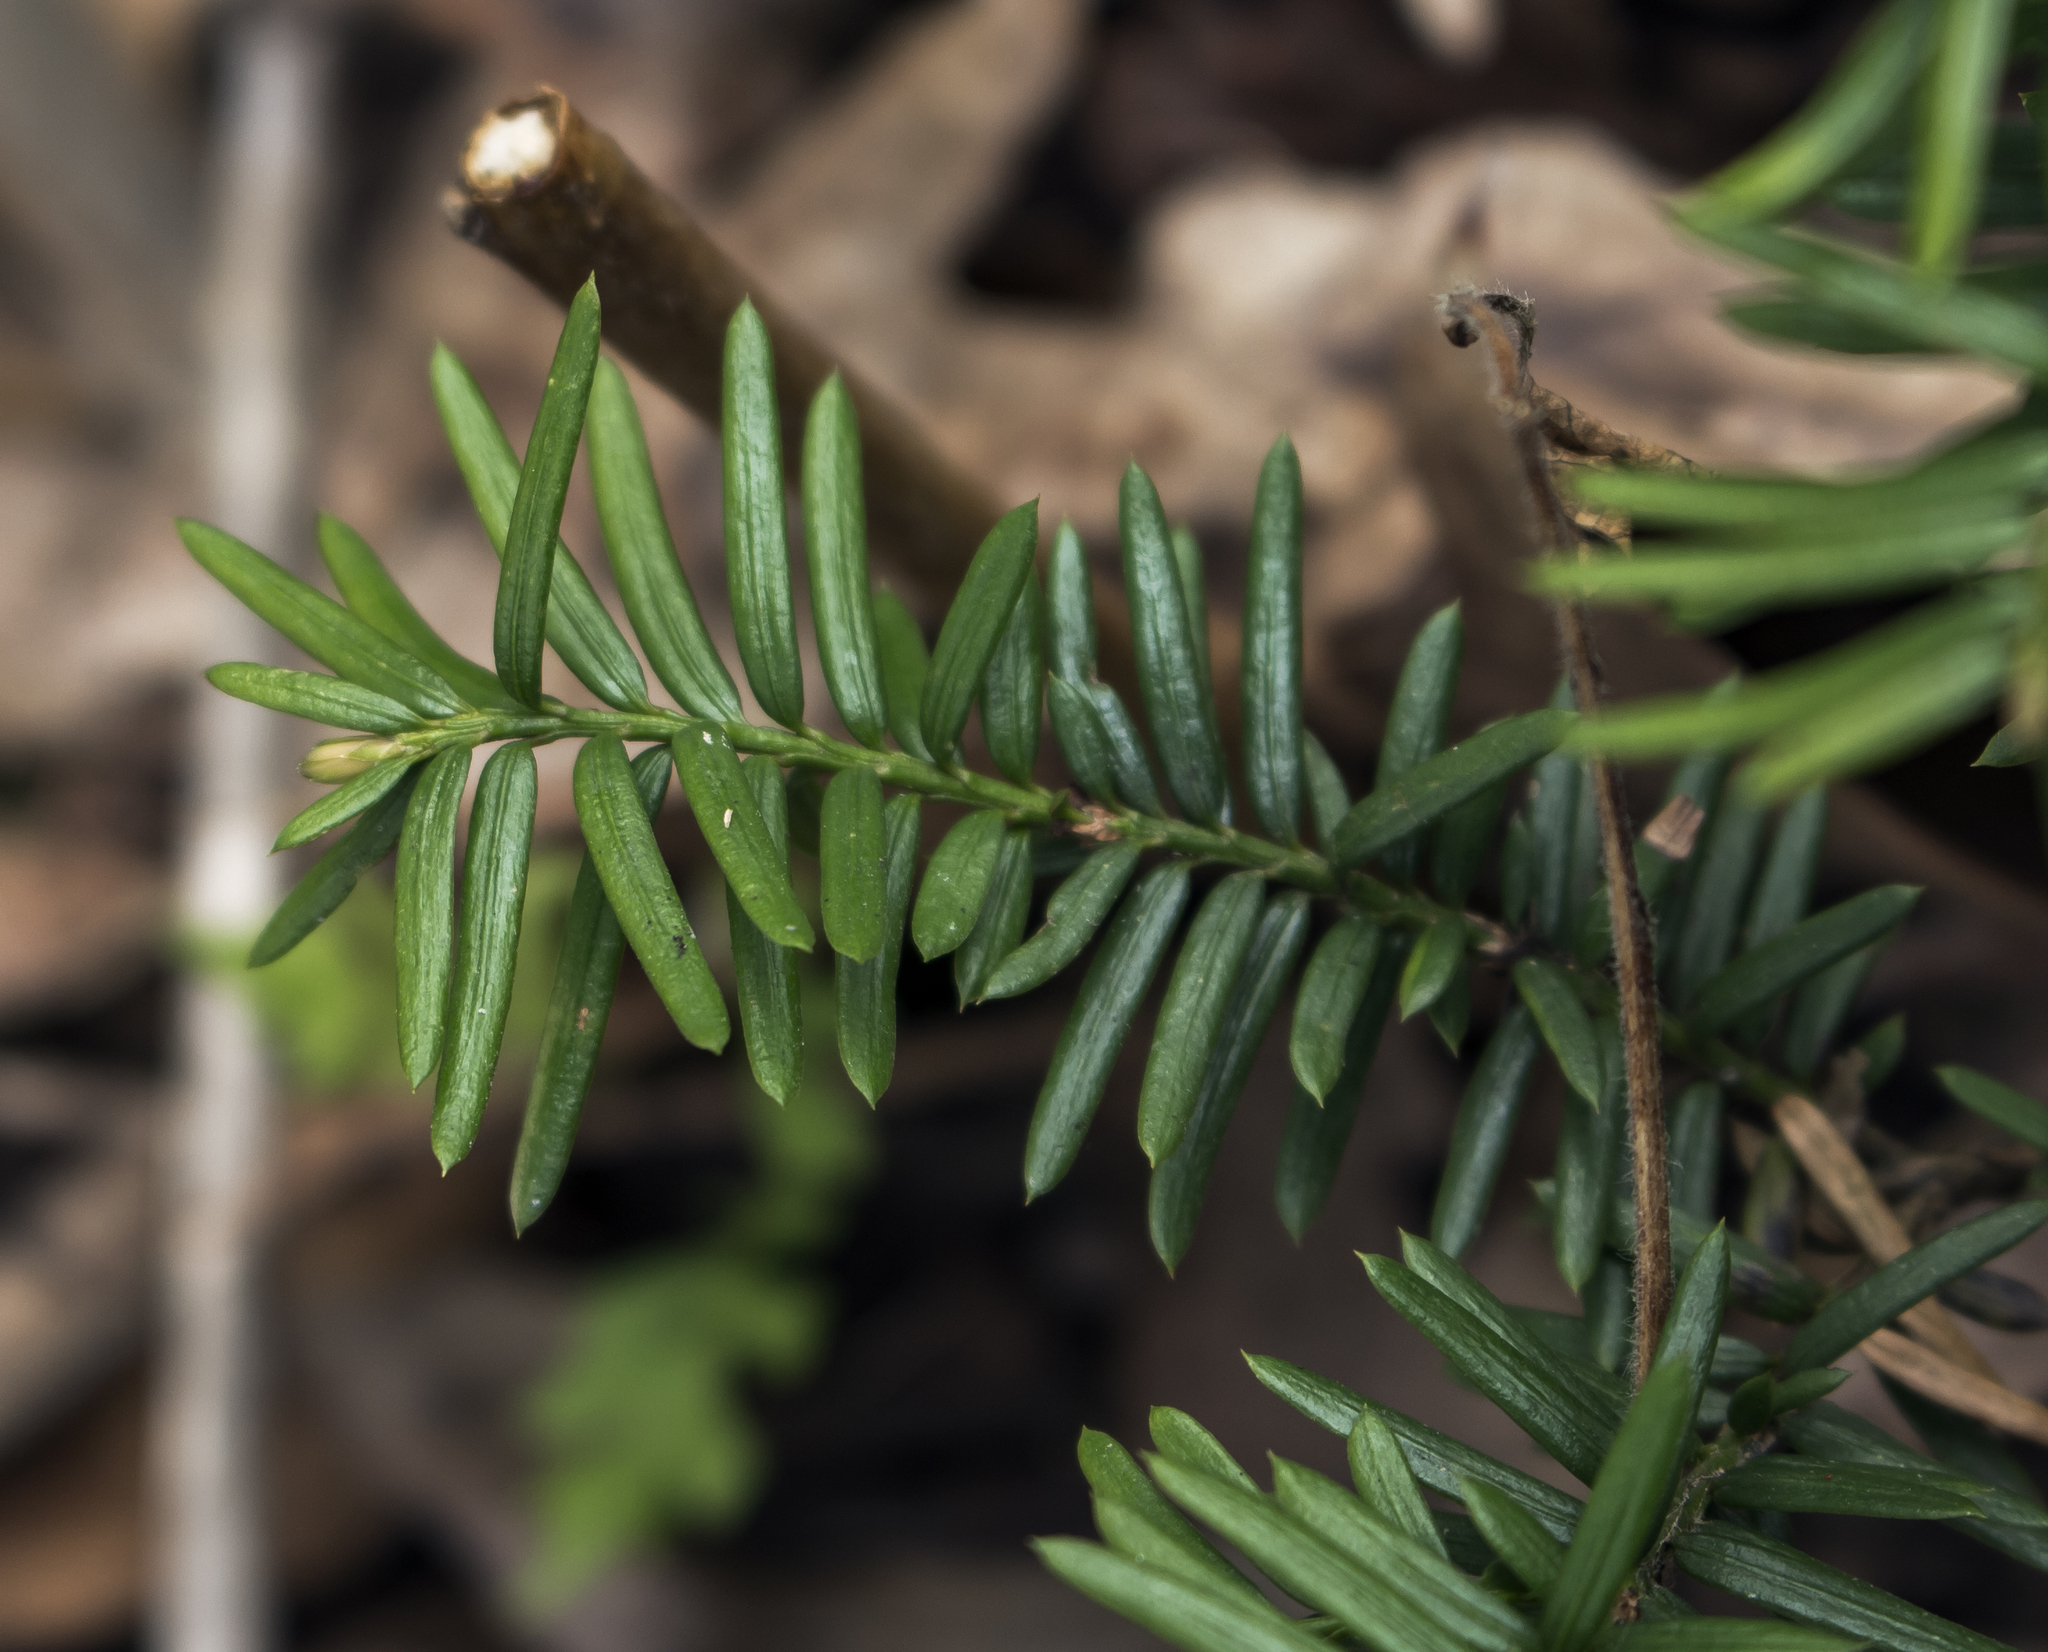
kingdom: Plantae
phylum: Tracheophyta
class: Pinopsida
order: Pinales
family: Taxaceae
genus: Taxus
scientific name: Taxus canadensis
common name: American yew
